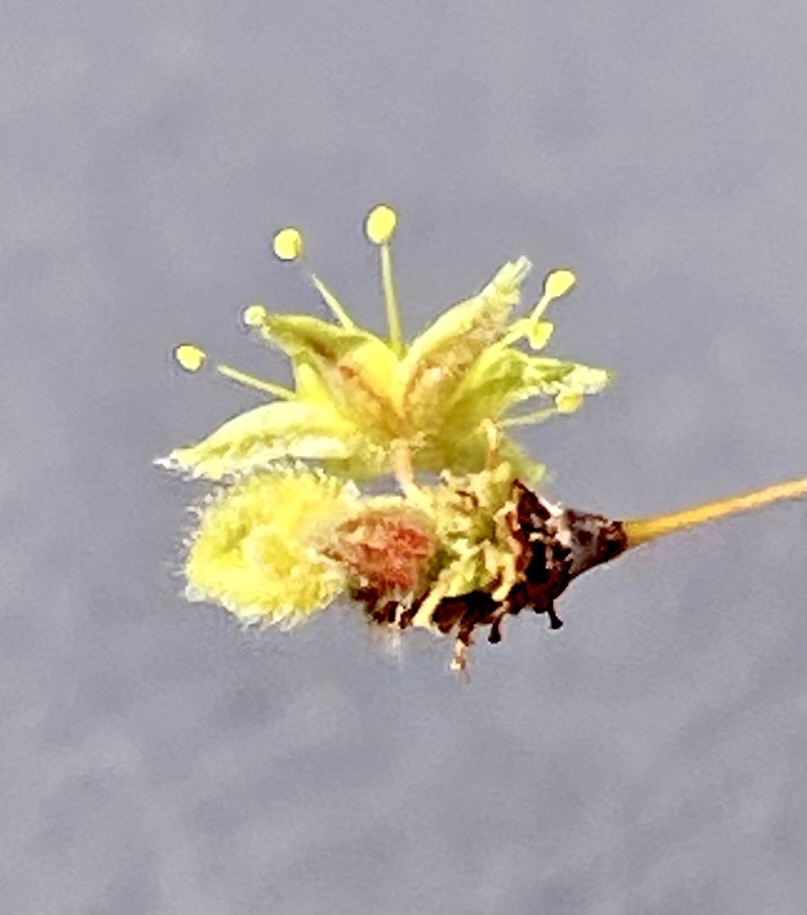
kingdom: Plantae
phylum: Tracheophyta
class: Magnoliopsida
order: Caryophyllales
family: Polygonaceae
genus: Eriogonum
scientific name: Eriogonum inflatum
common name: Desert trumpet
